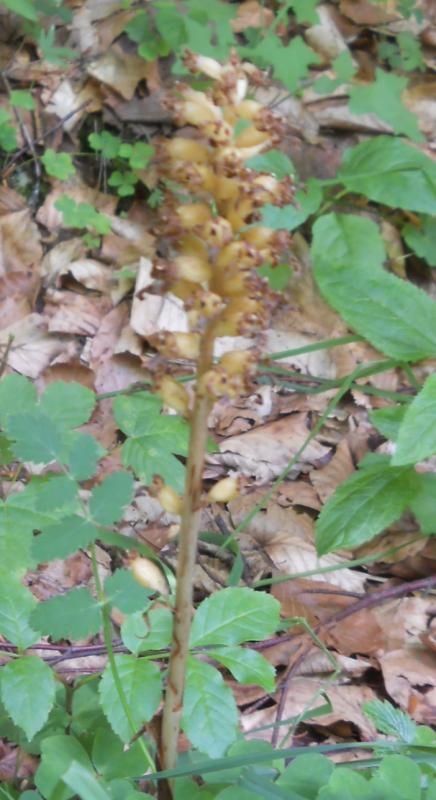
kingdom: Plantae
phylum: Tracheophyta
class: Liliopsida
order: Asparagales
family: Orchidaceae
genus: Neottia
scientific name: Neottia nidus-avis
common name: Bird's-nest orchid
